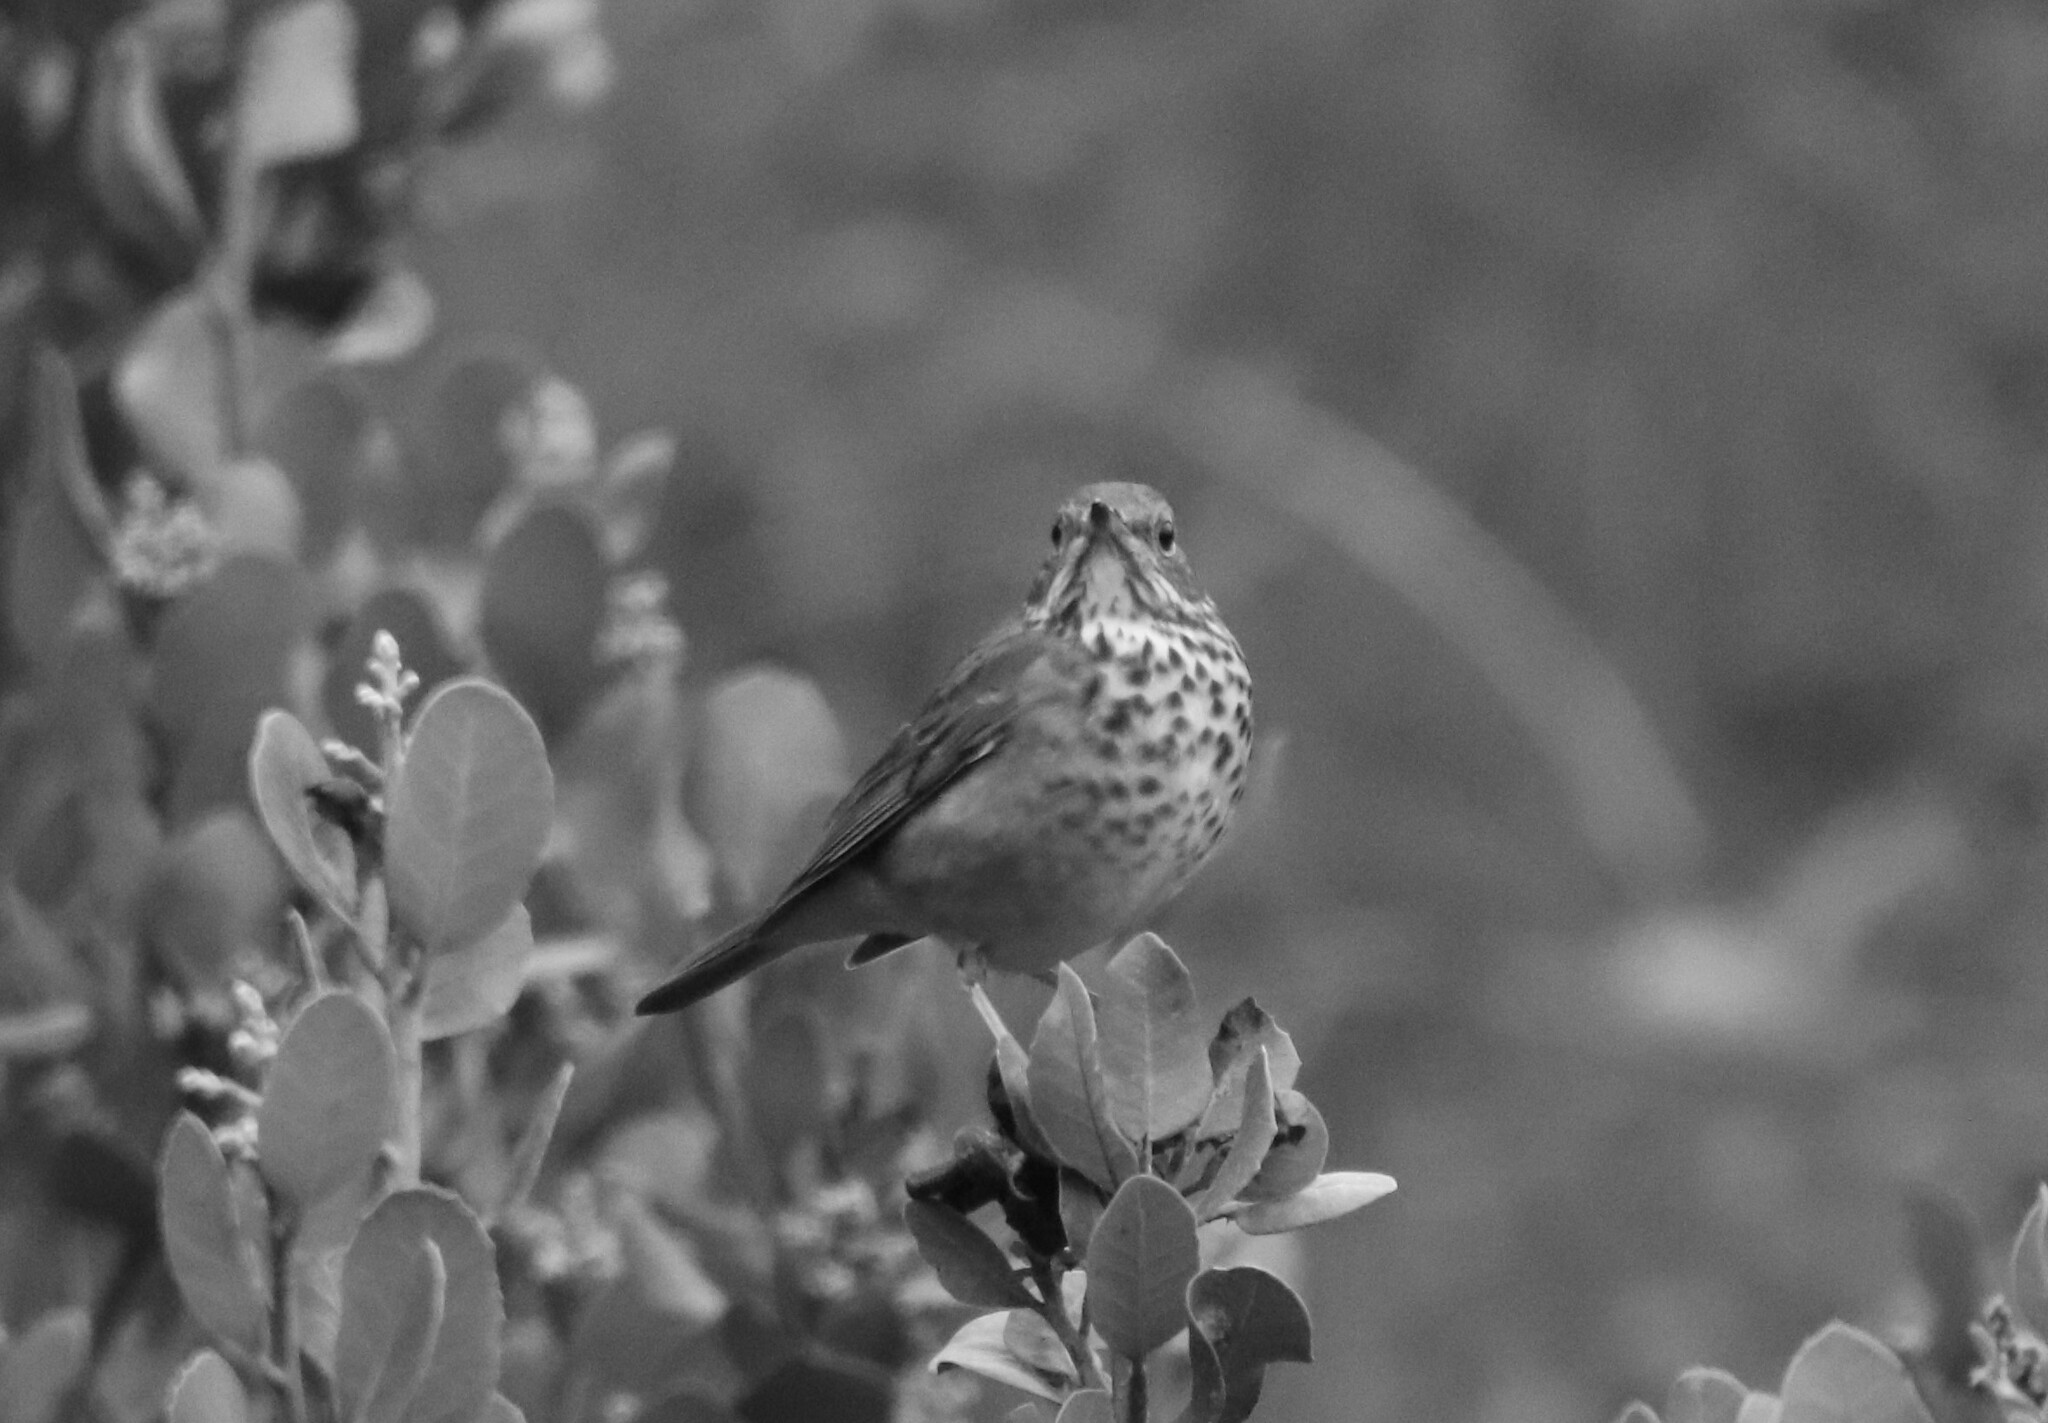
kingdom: Animalia
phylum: Chordata
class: Aves
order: Passeriformes
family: Turdidae
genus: Catharus
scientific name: Catharus guttatus
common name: Hermit thrush
